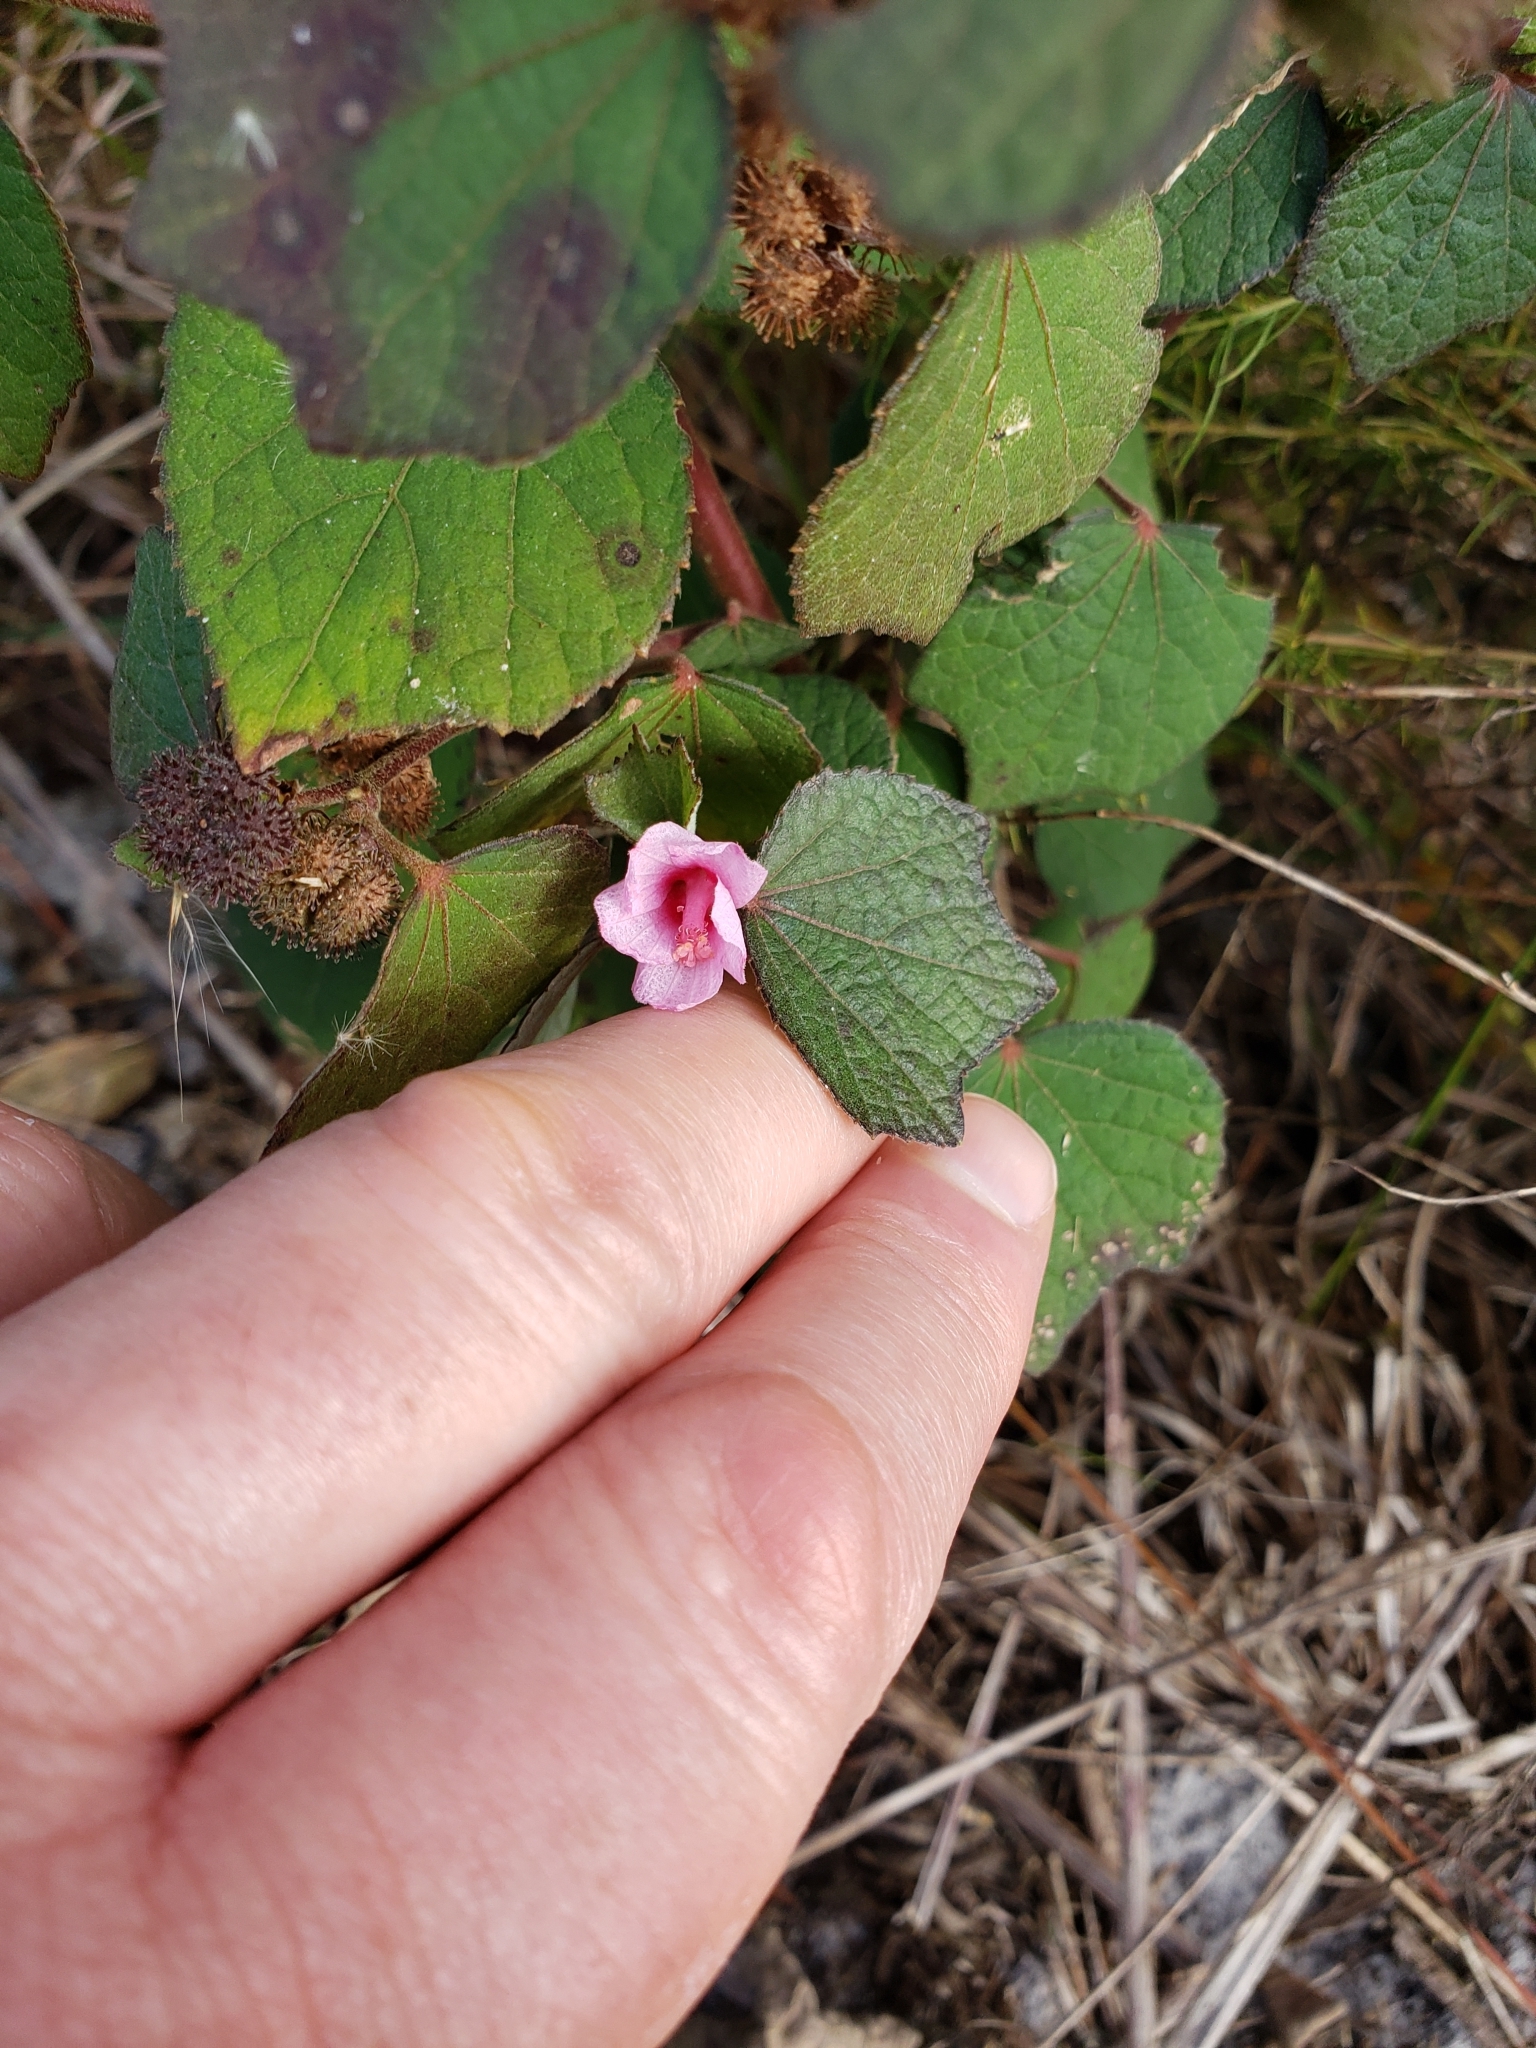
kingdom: Plantae
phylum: Tracheophyta
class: Magnoliopsida
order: Malvales
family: Malvaceae
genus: Urena
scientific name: Urena lobata
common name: Caesarweed
